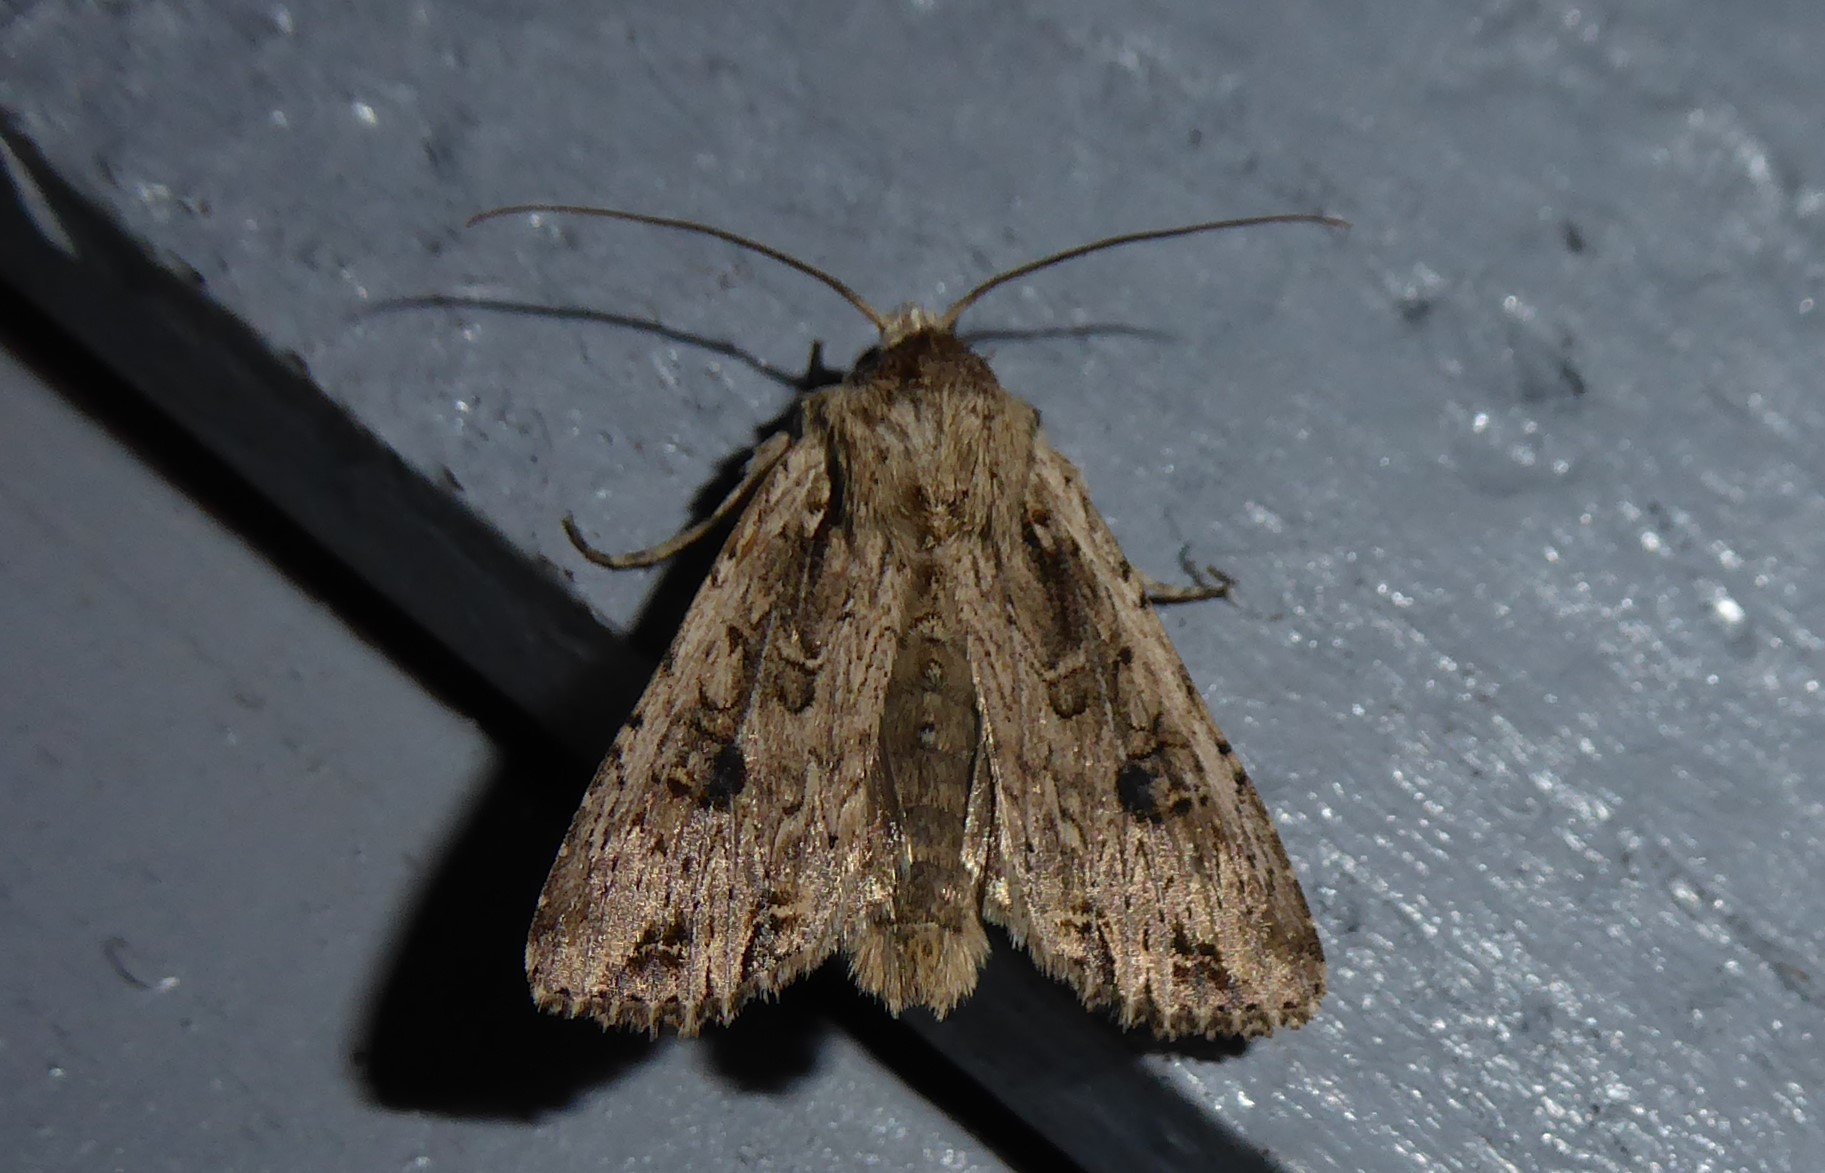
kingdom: Animalia
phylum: Arthropoda
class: Insecta
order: Lepidoptera
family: Noctuidae
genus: Ichneutica
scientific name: Ichneutica lignana
